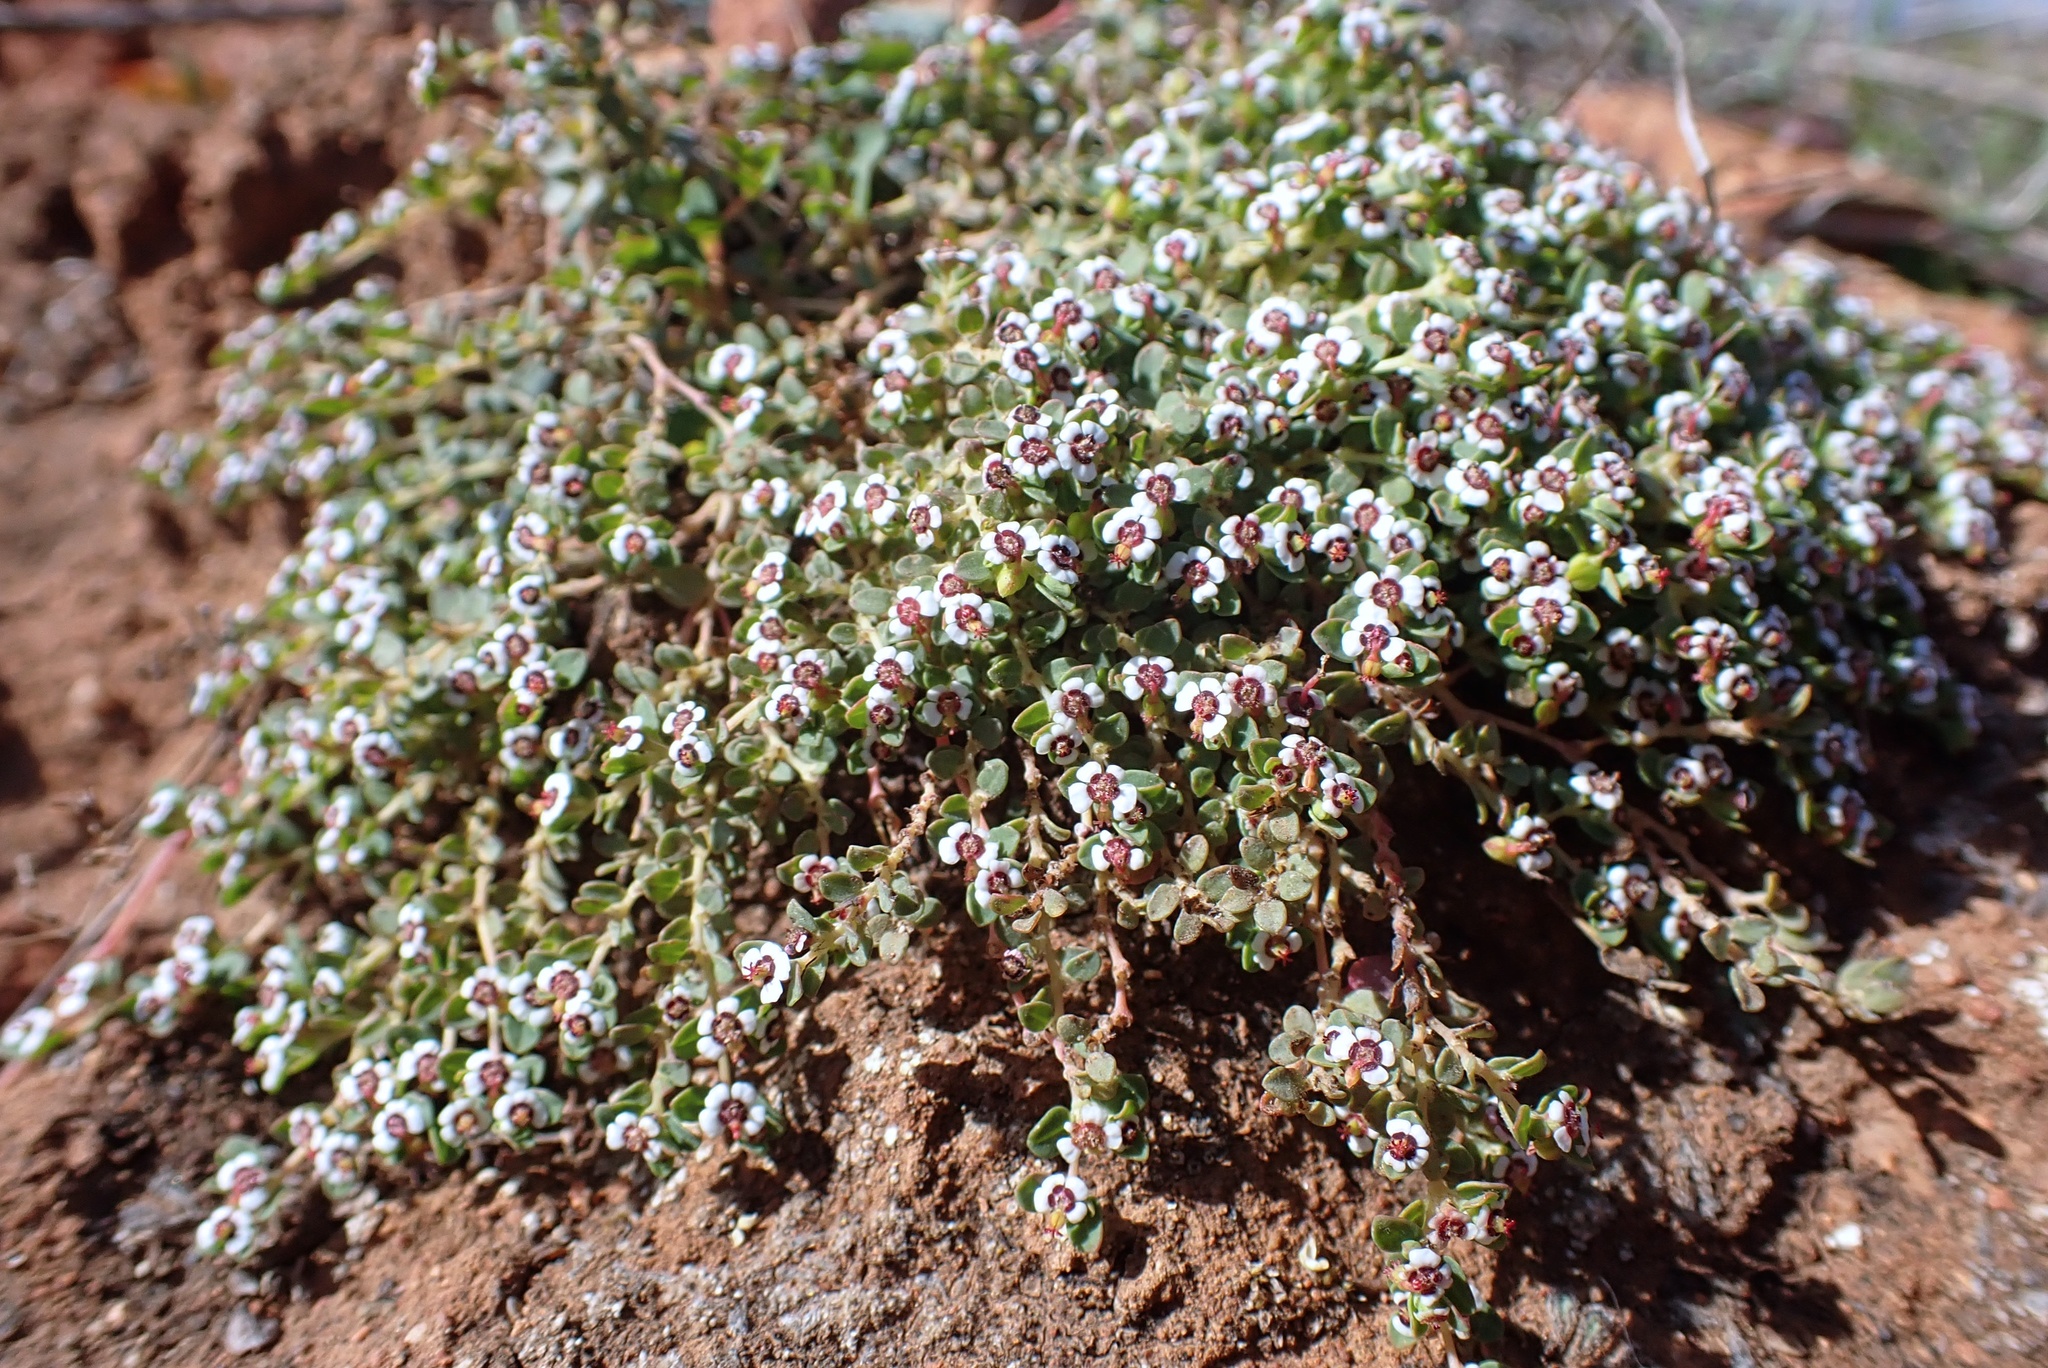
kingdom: Plantae
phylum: Tracheophyta
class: Magnoliopsida
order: Malpighiales
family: Euphorbiaceae
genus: Euphorbia
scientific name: Euphorbia polycarpa
